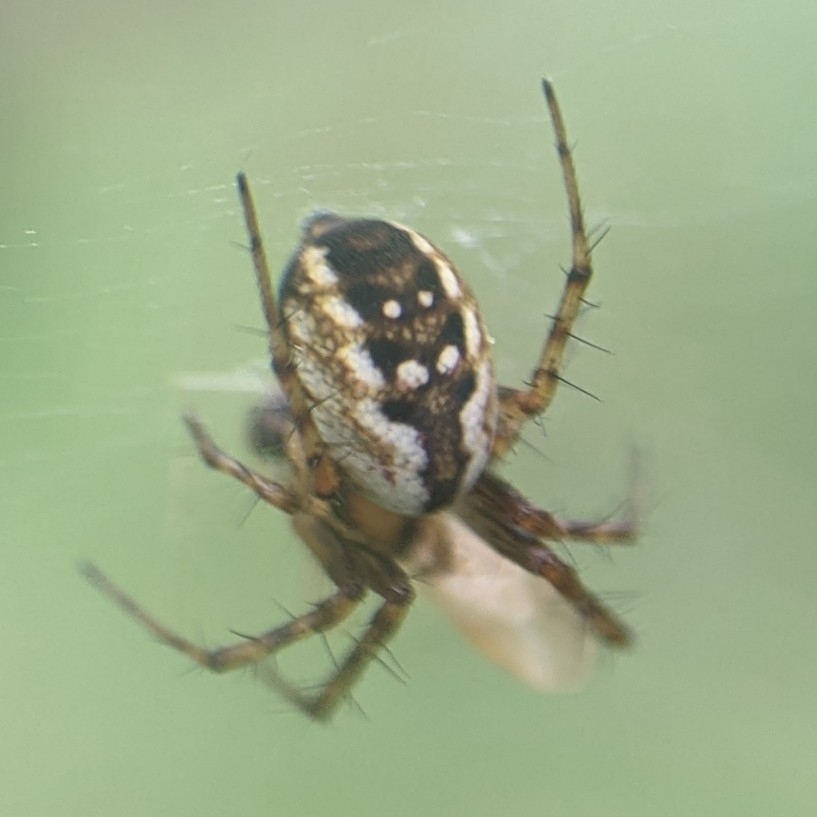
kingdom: Animalia
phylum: Arthropoda
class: Arachnida
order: Araneae
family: Araneidae
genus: Mangora
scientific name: Mangora placida
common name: Tuft-legged orbweaver
